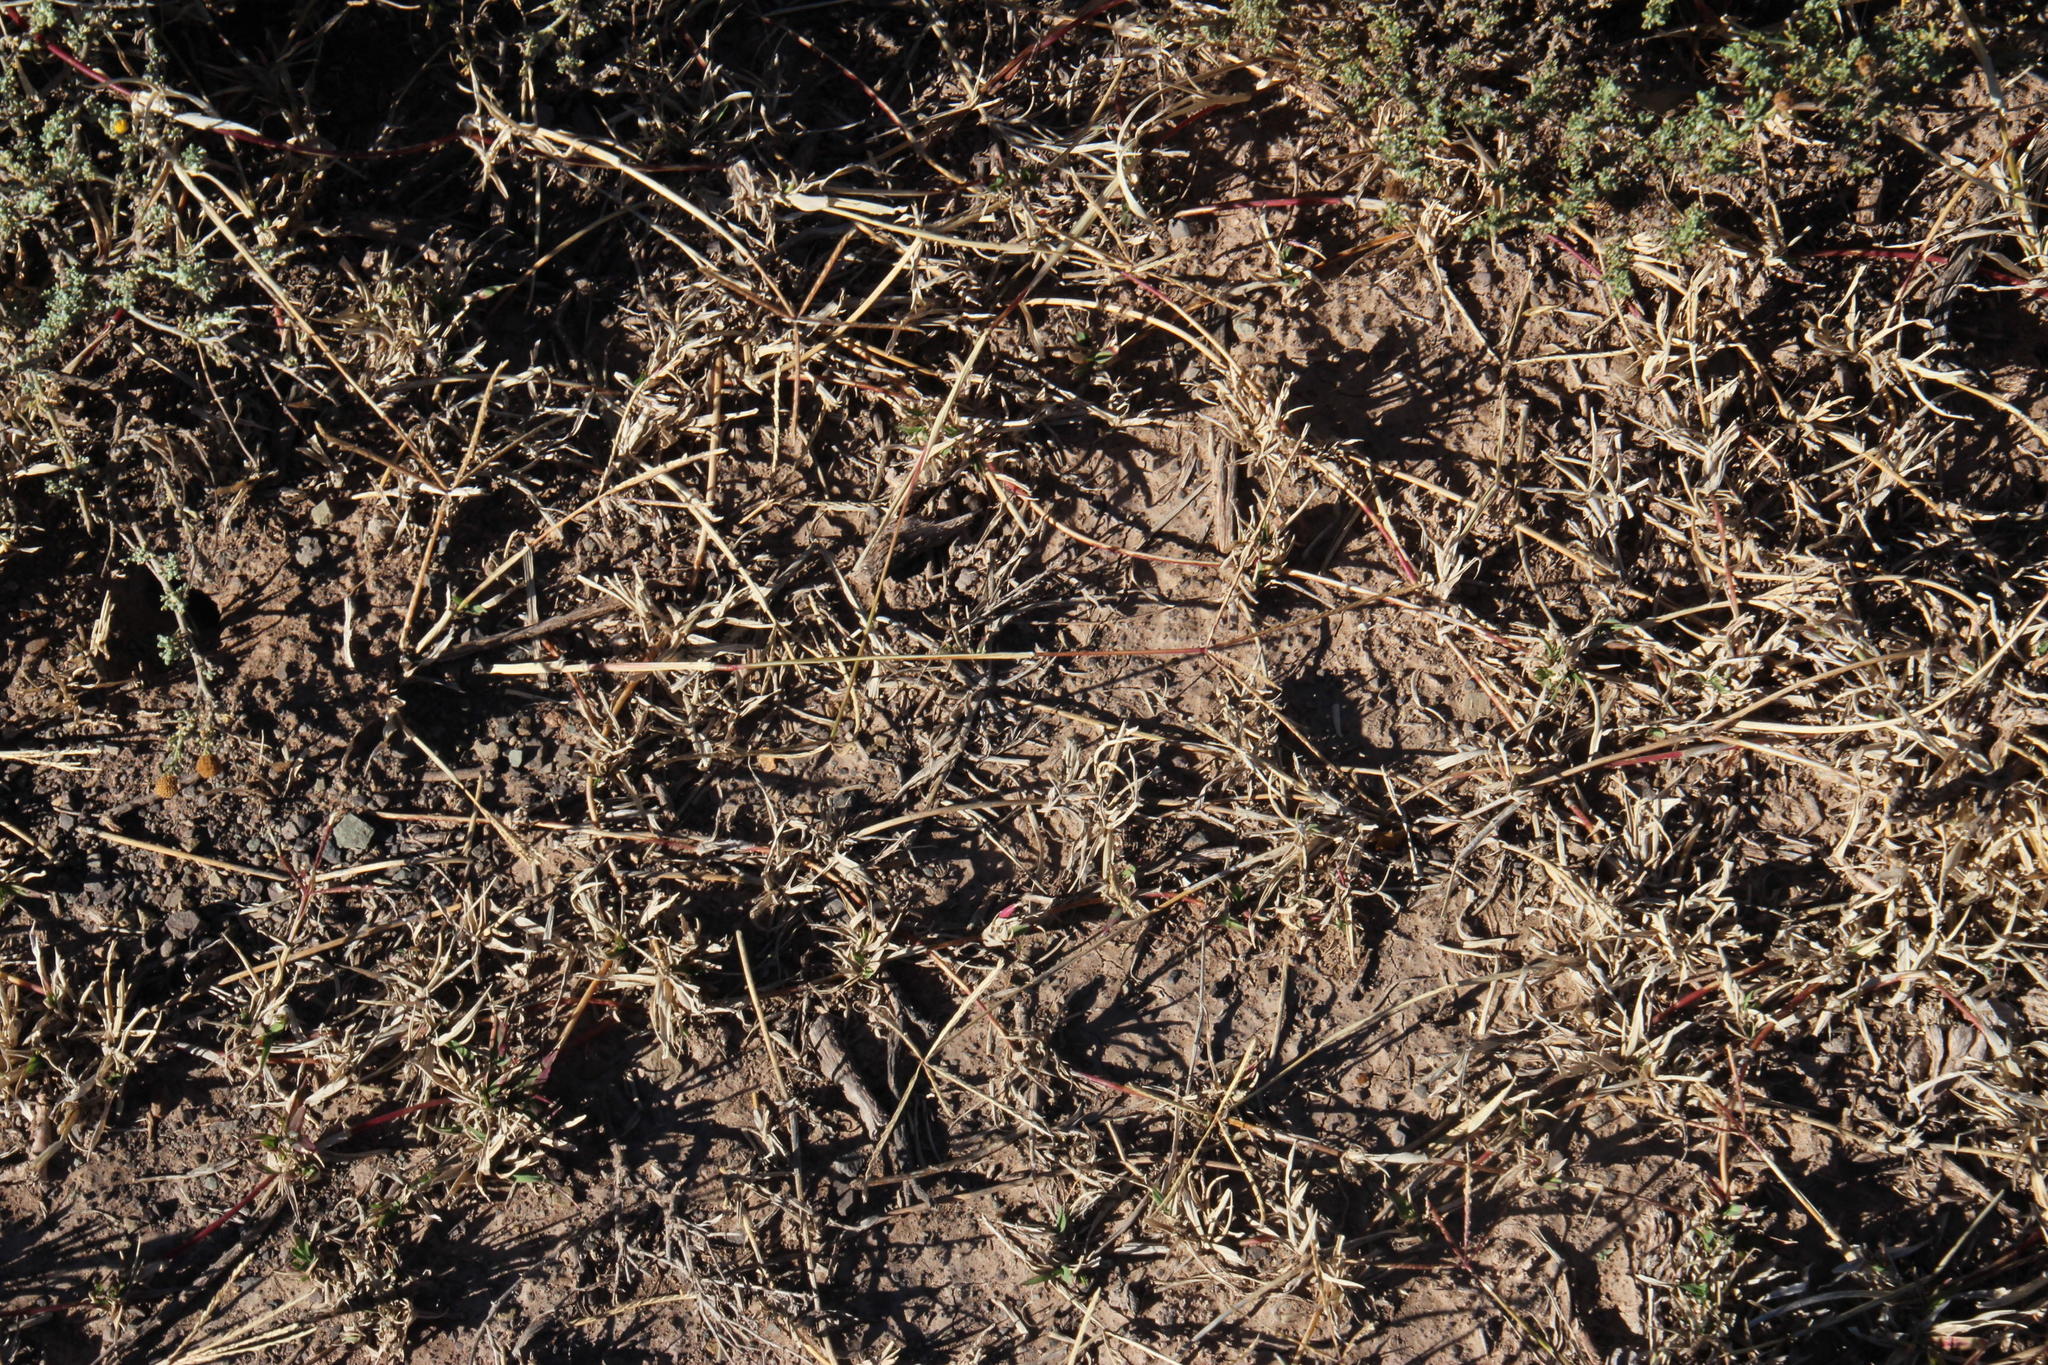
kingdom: Plantae
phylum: Tracheophyta
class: Liliopsida
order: Poales
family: Poaceae
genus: Cynodon
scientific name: Cynodon incompletus
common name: African bermuda-grass
